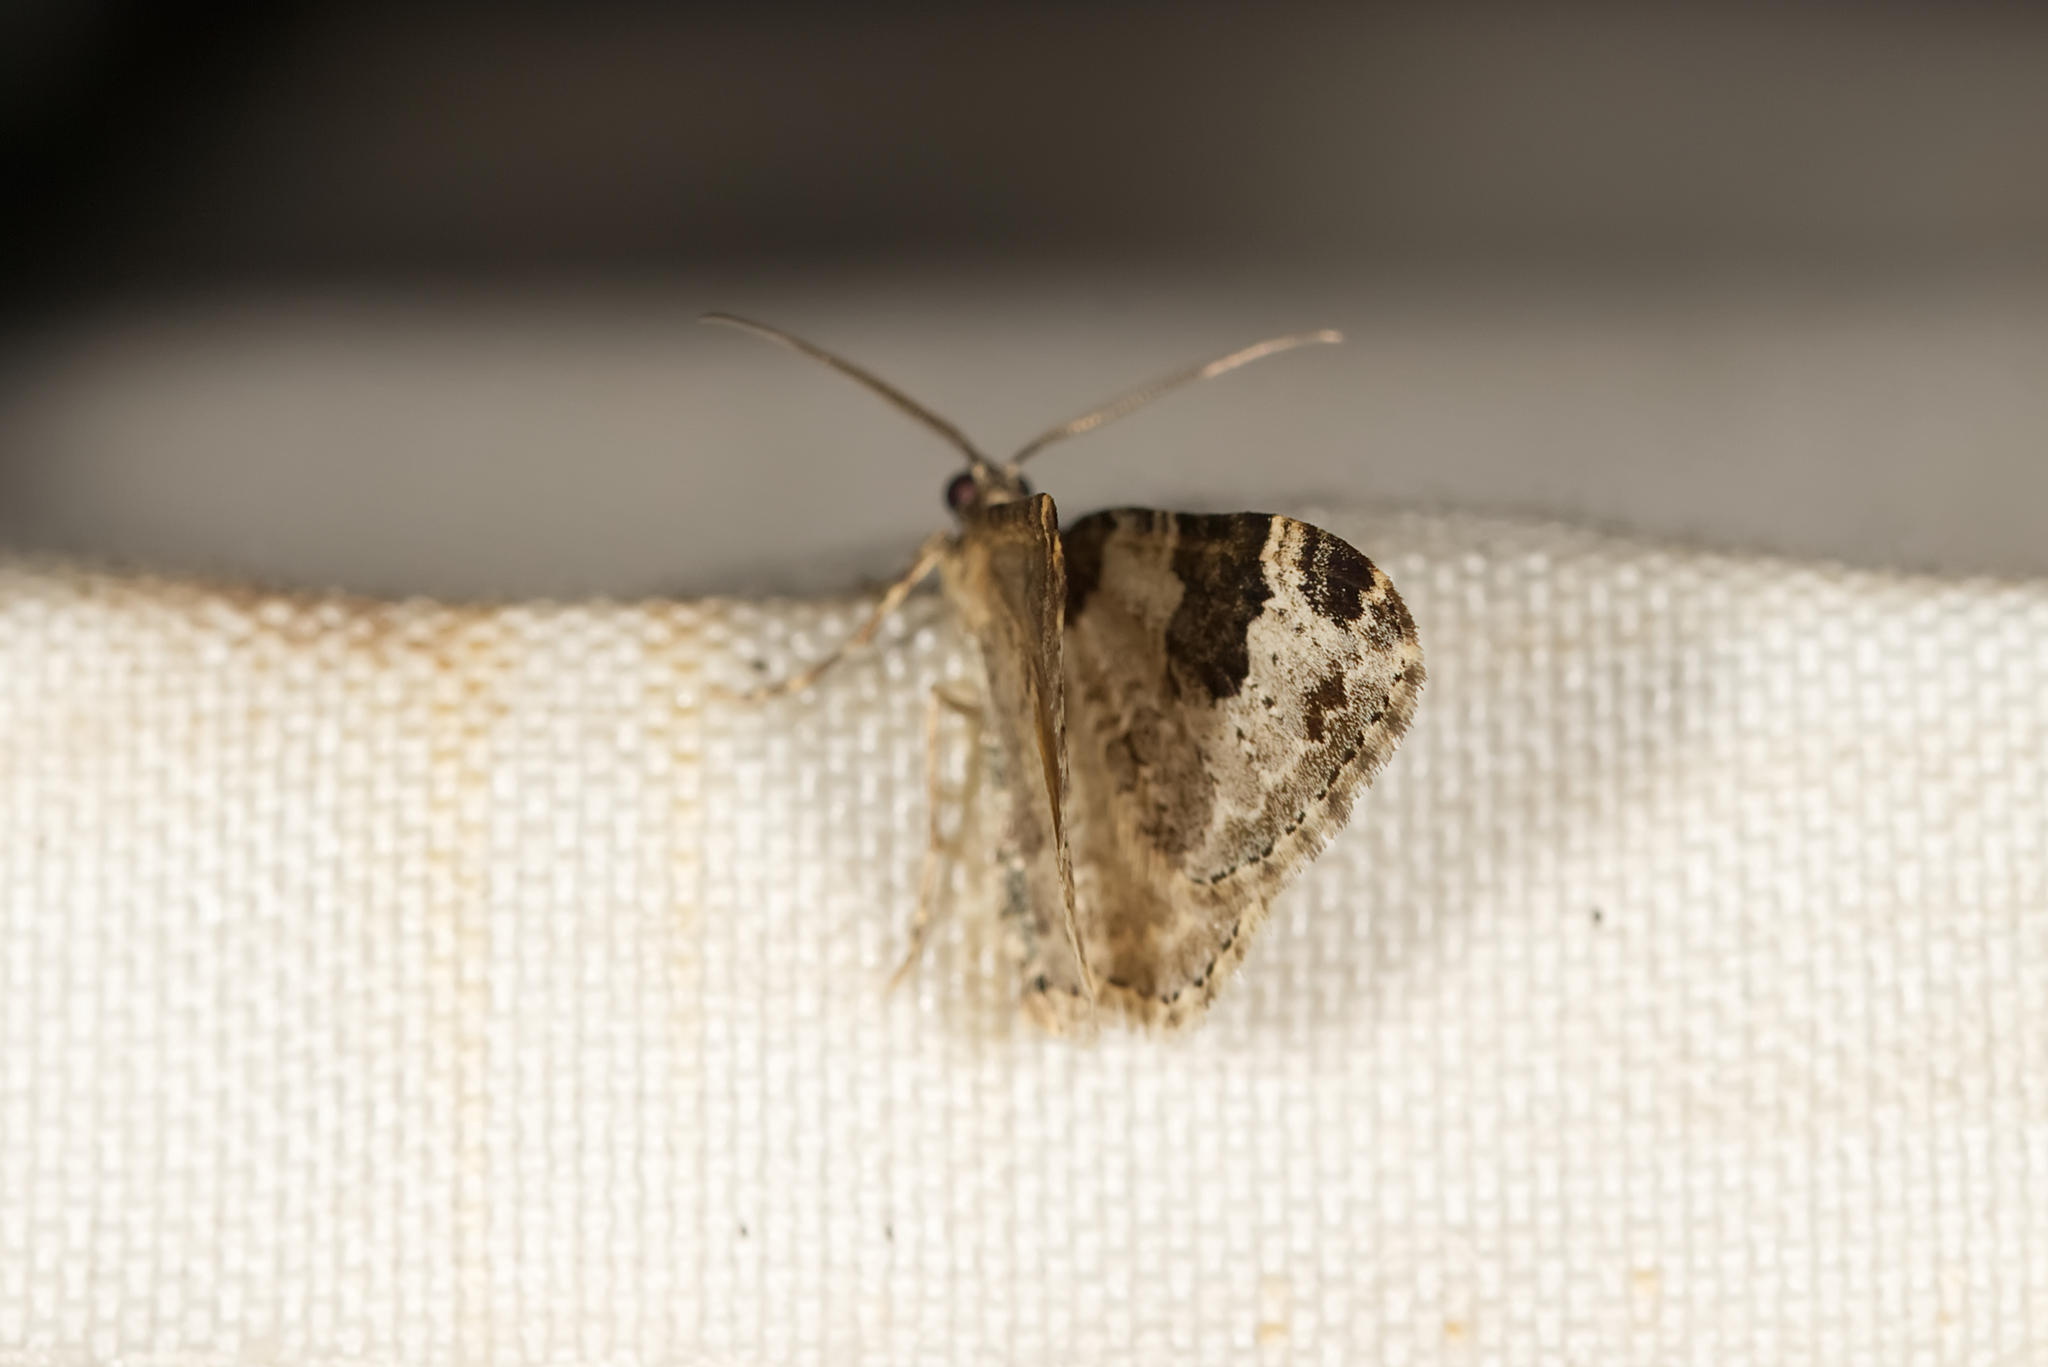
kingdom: Animalia
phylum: Arthropoda
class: Insecta
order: Lepidoptera
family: Geometridae
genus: Xanthorhoe
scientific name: Xanthorhoe fluctuata
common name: Garden carpet
